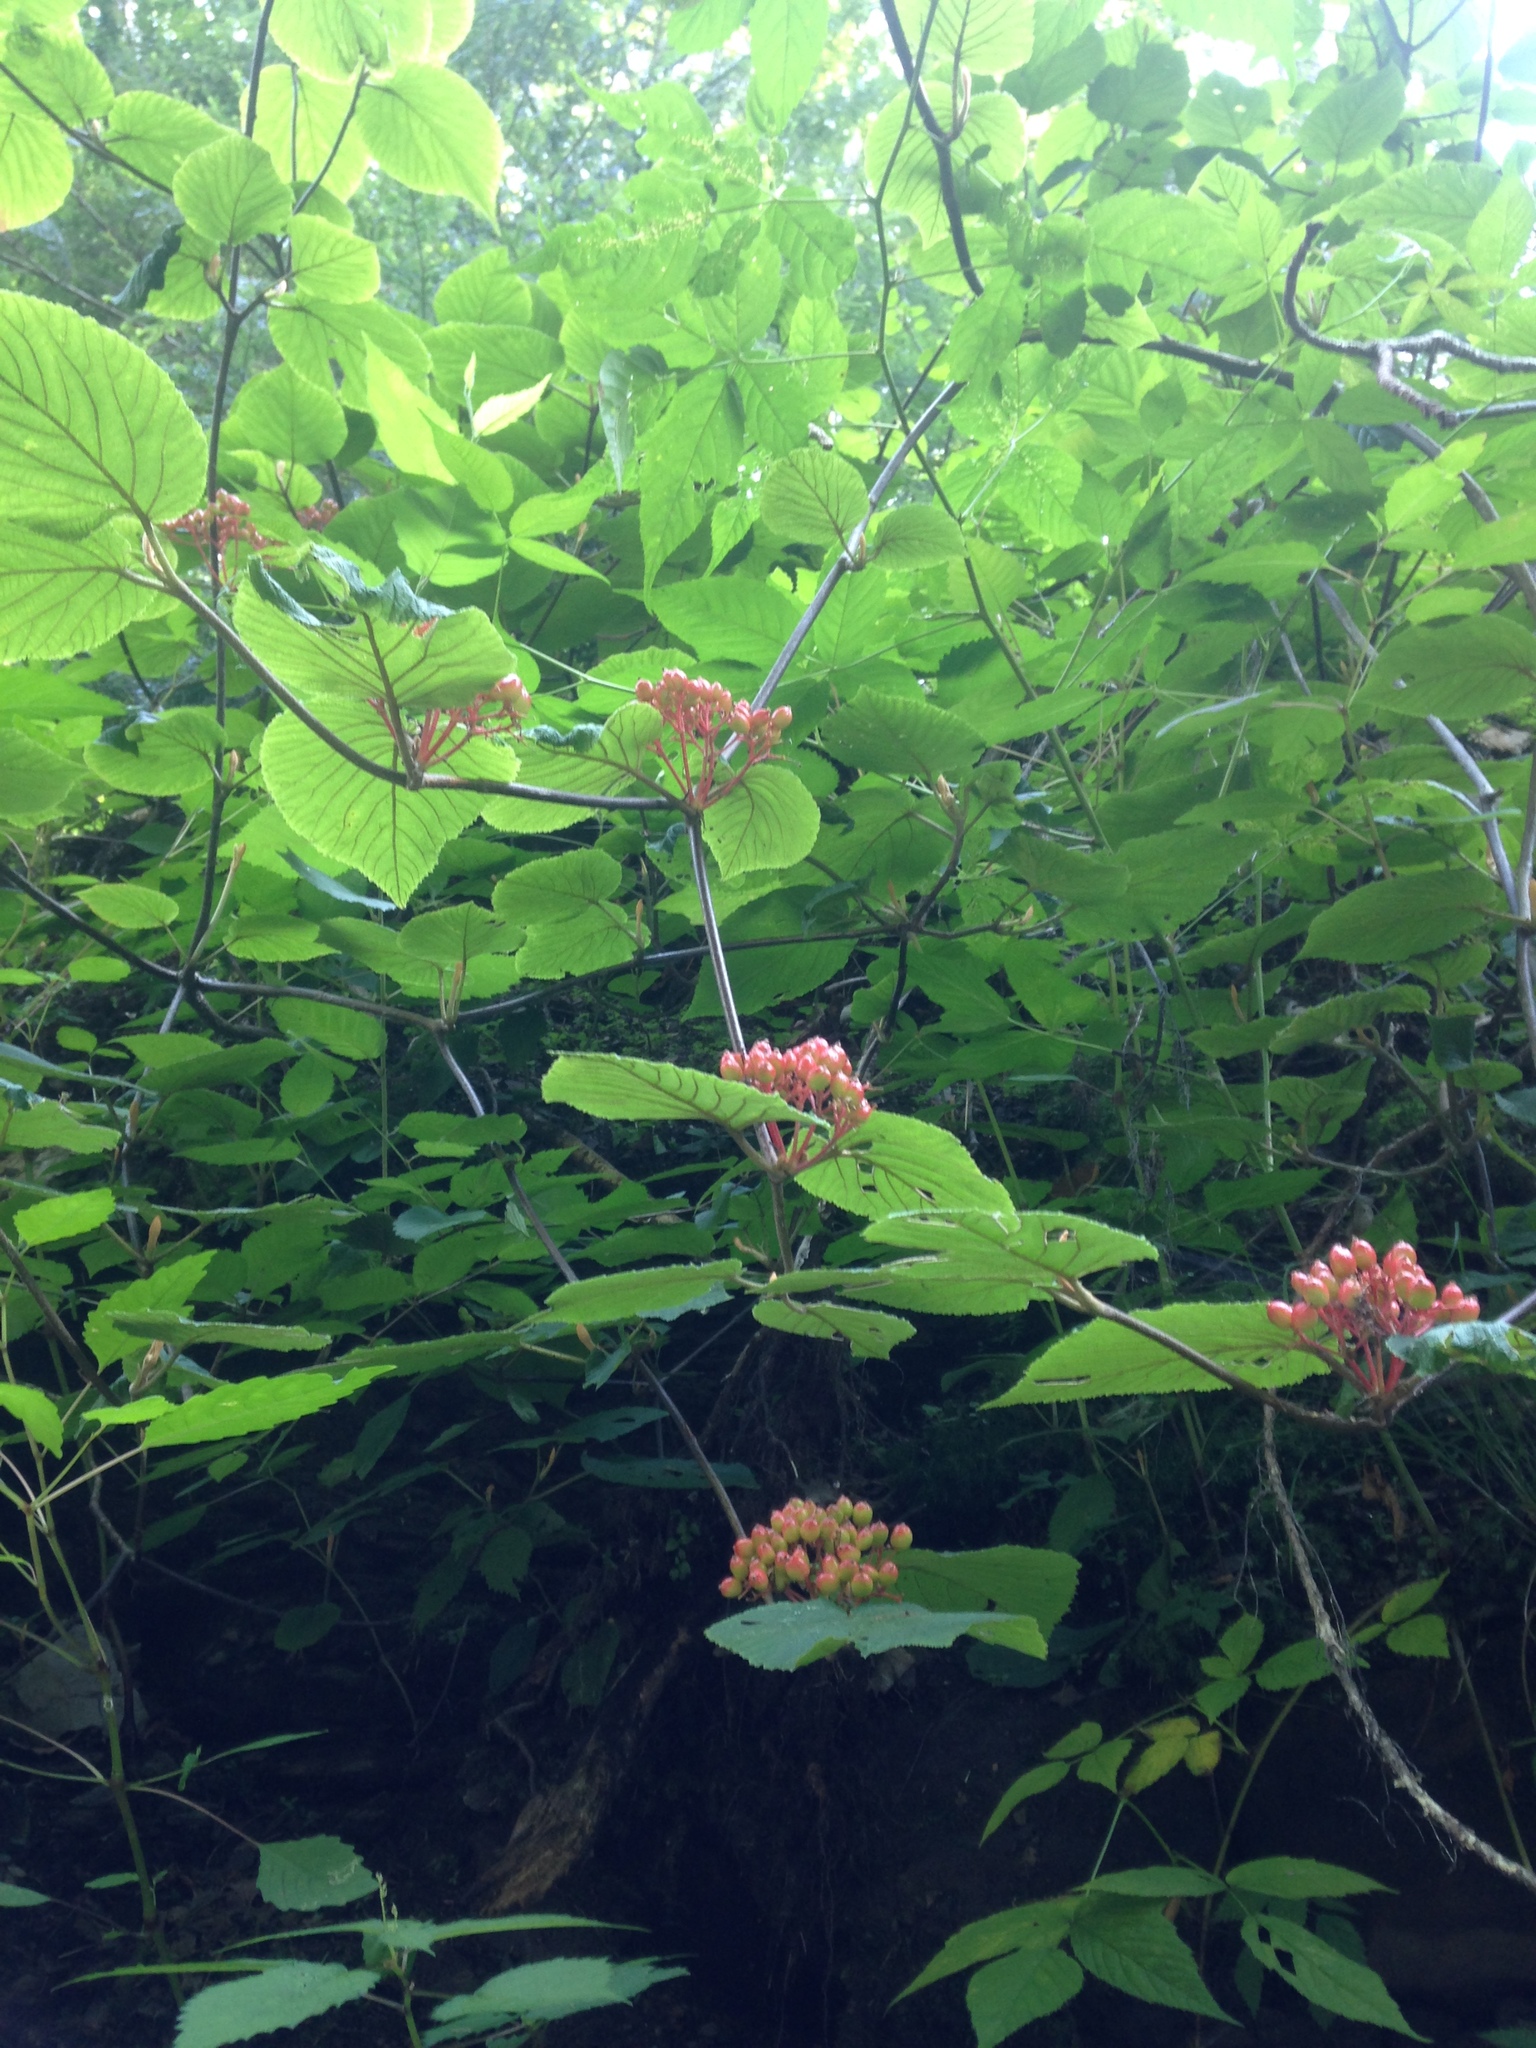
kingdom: Plantae
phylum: Tracheophyta
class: Magnoliopsida
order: Dipsacales
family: Viburnaceae
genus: Viburnum
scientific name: Viburnum lantanoides
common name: Hobblebush
